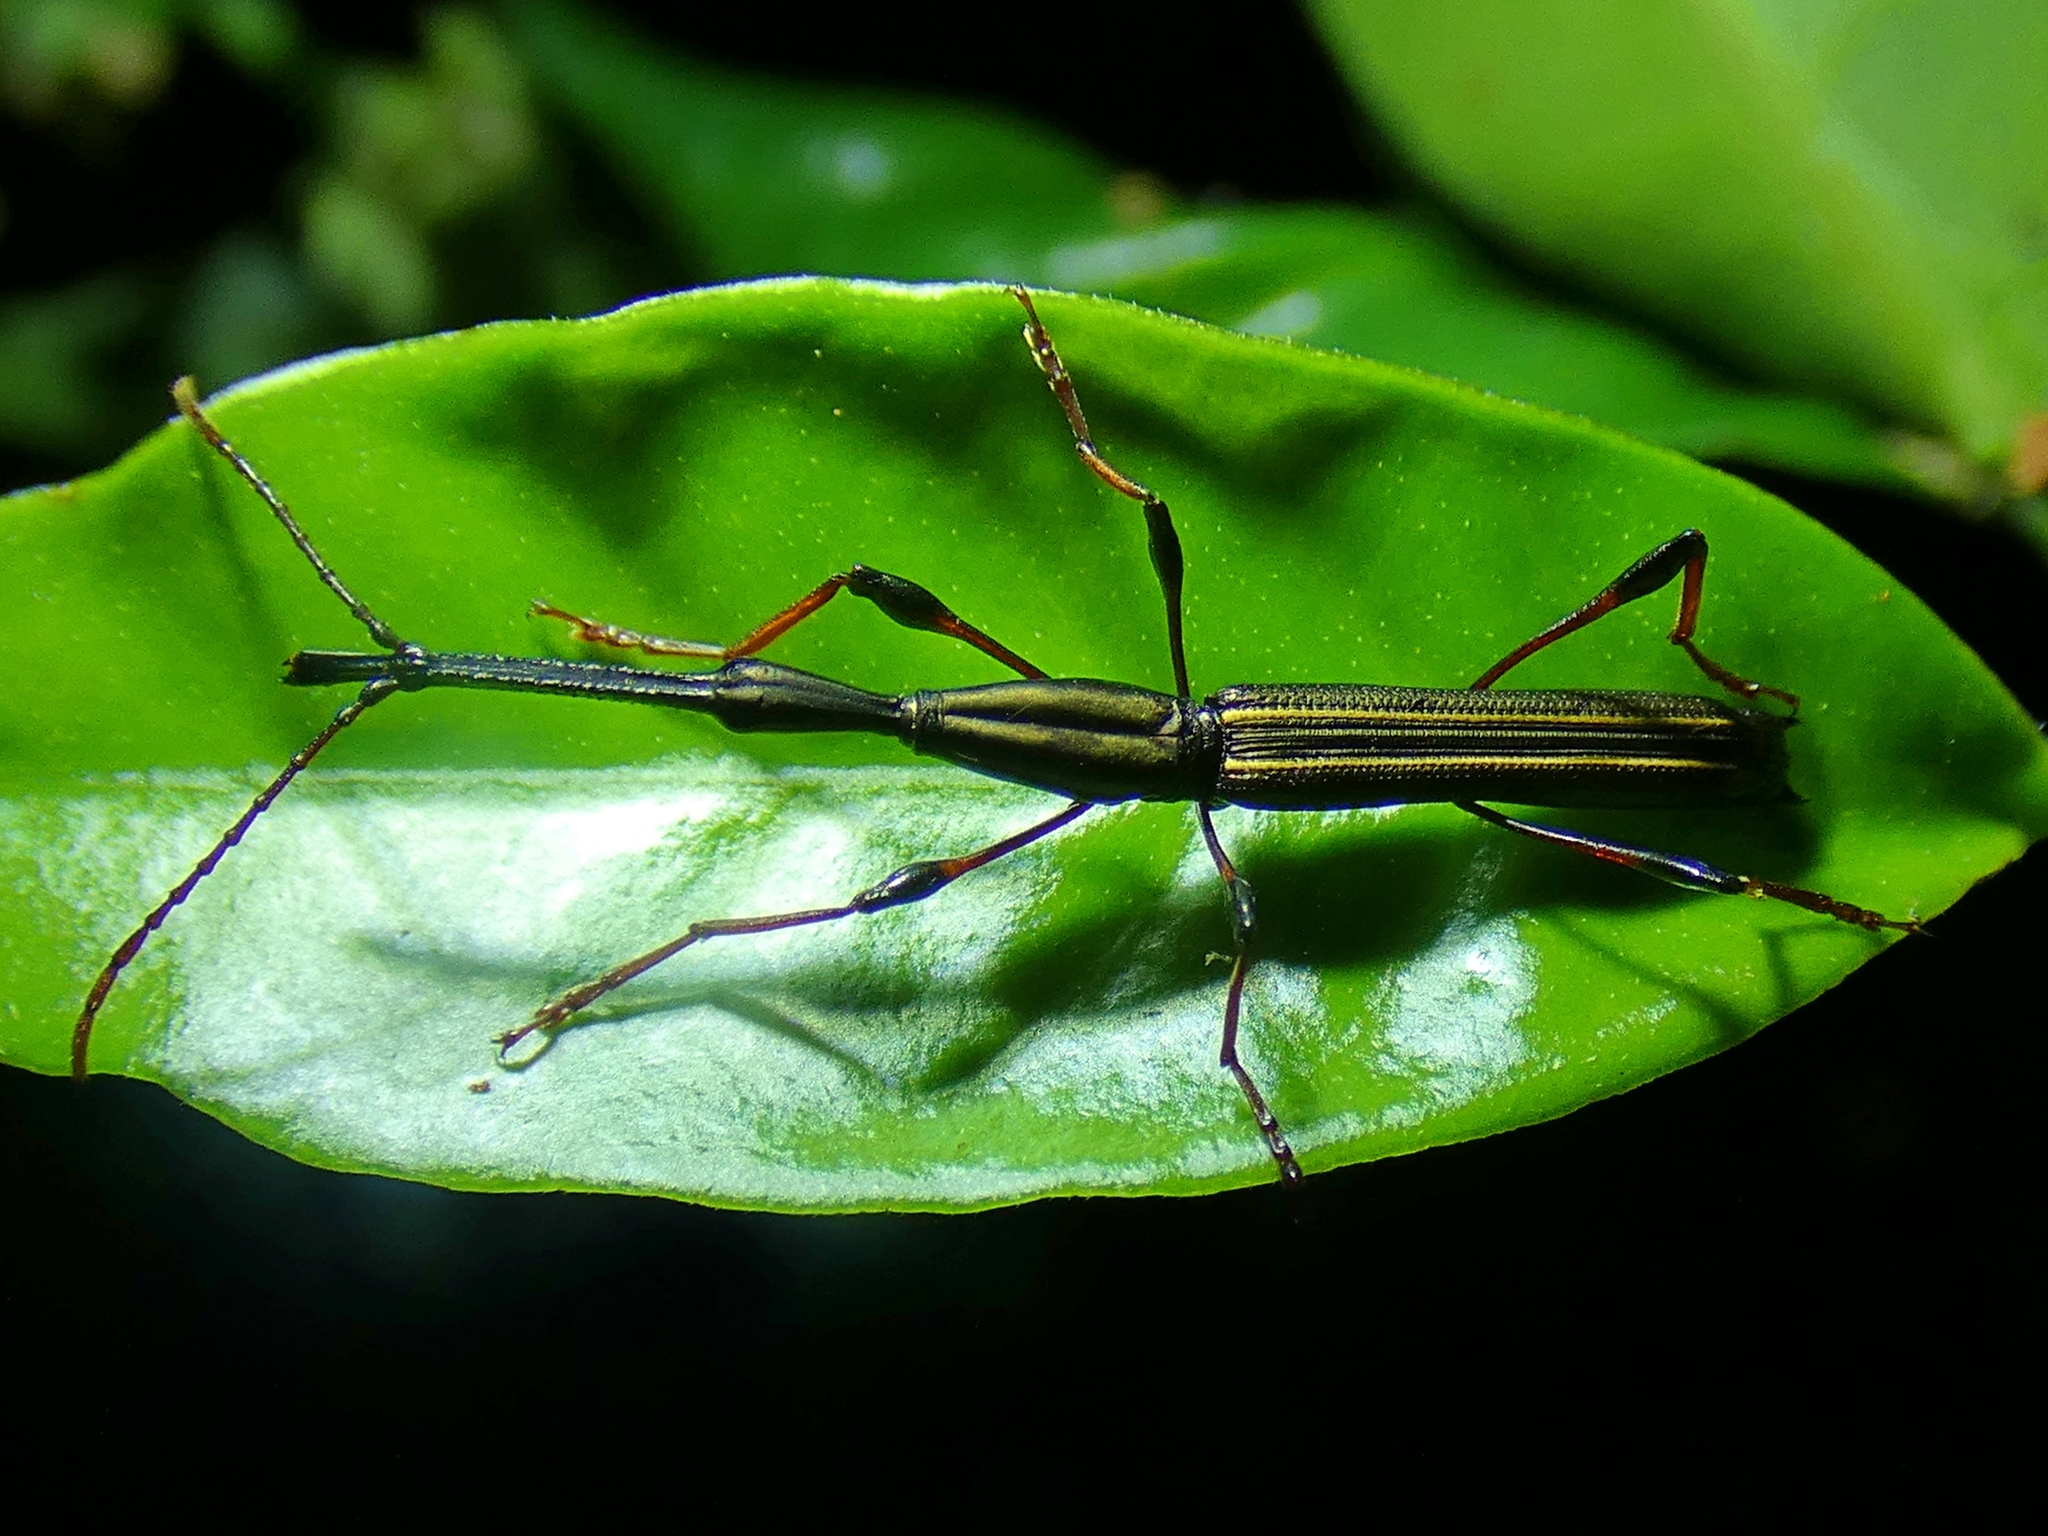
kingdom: Animalia
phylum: Arthropoda
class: Insecta
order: Coleoptera
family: Brentidae
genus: Ithystenus
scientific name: Ithystenus hollandiae
